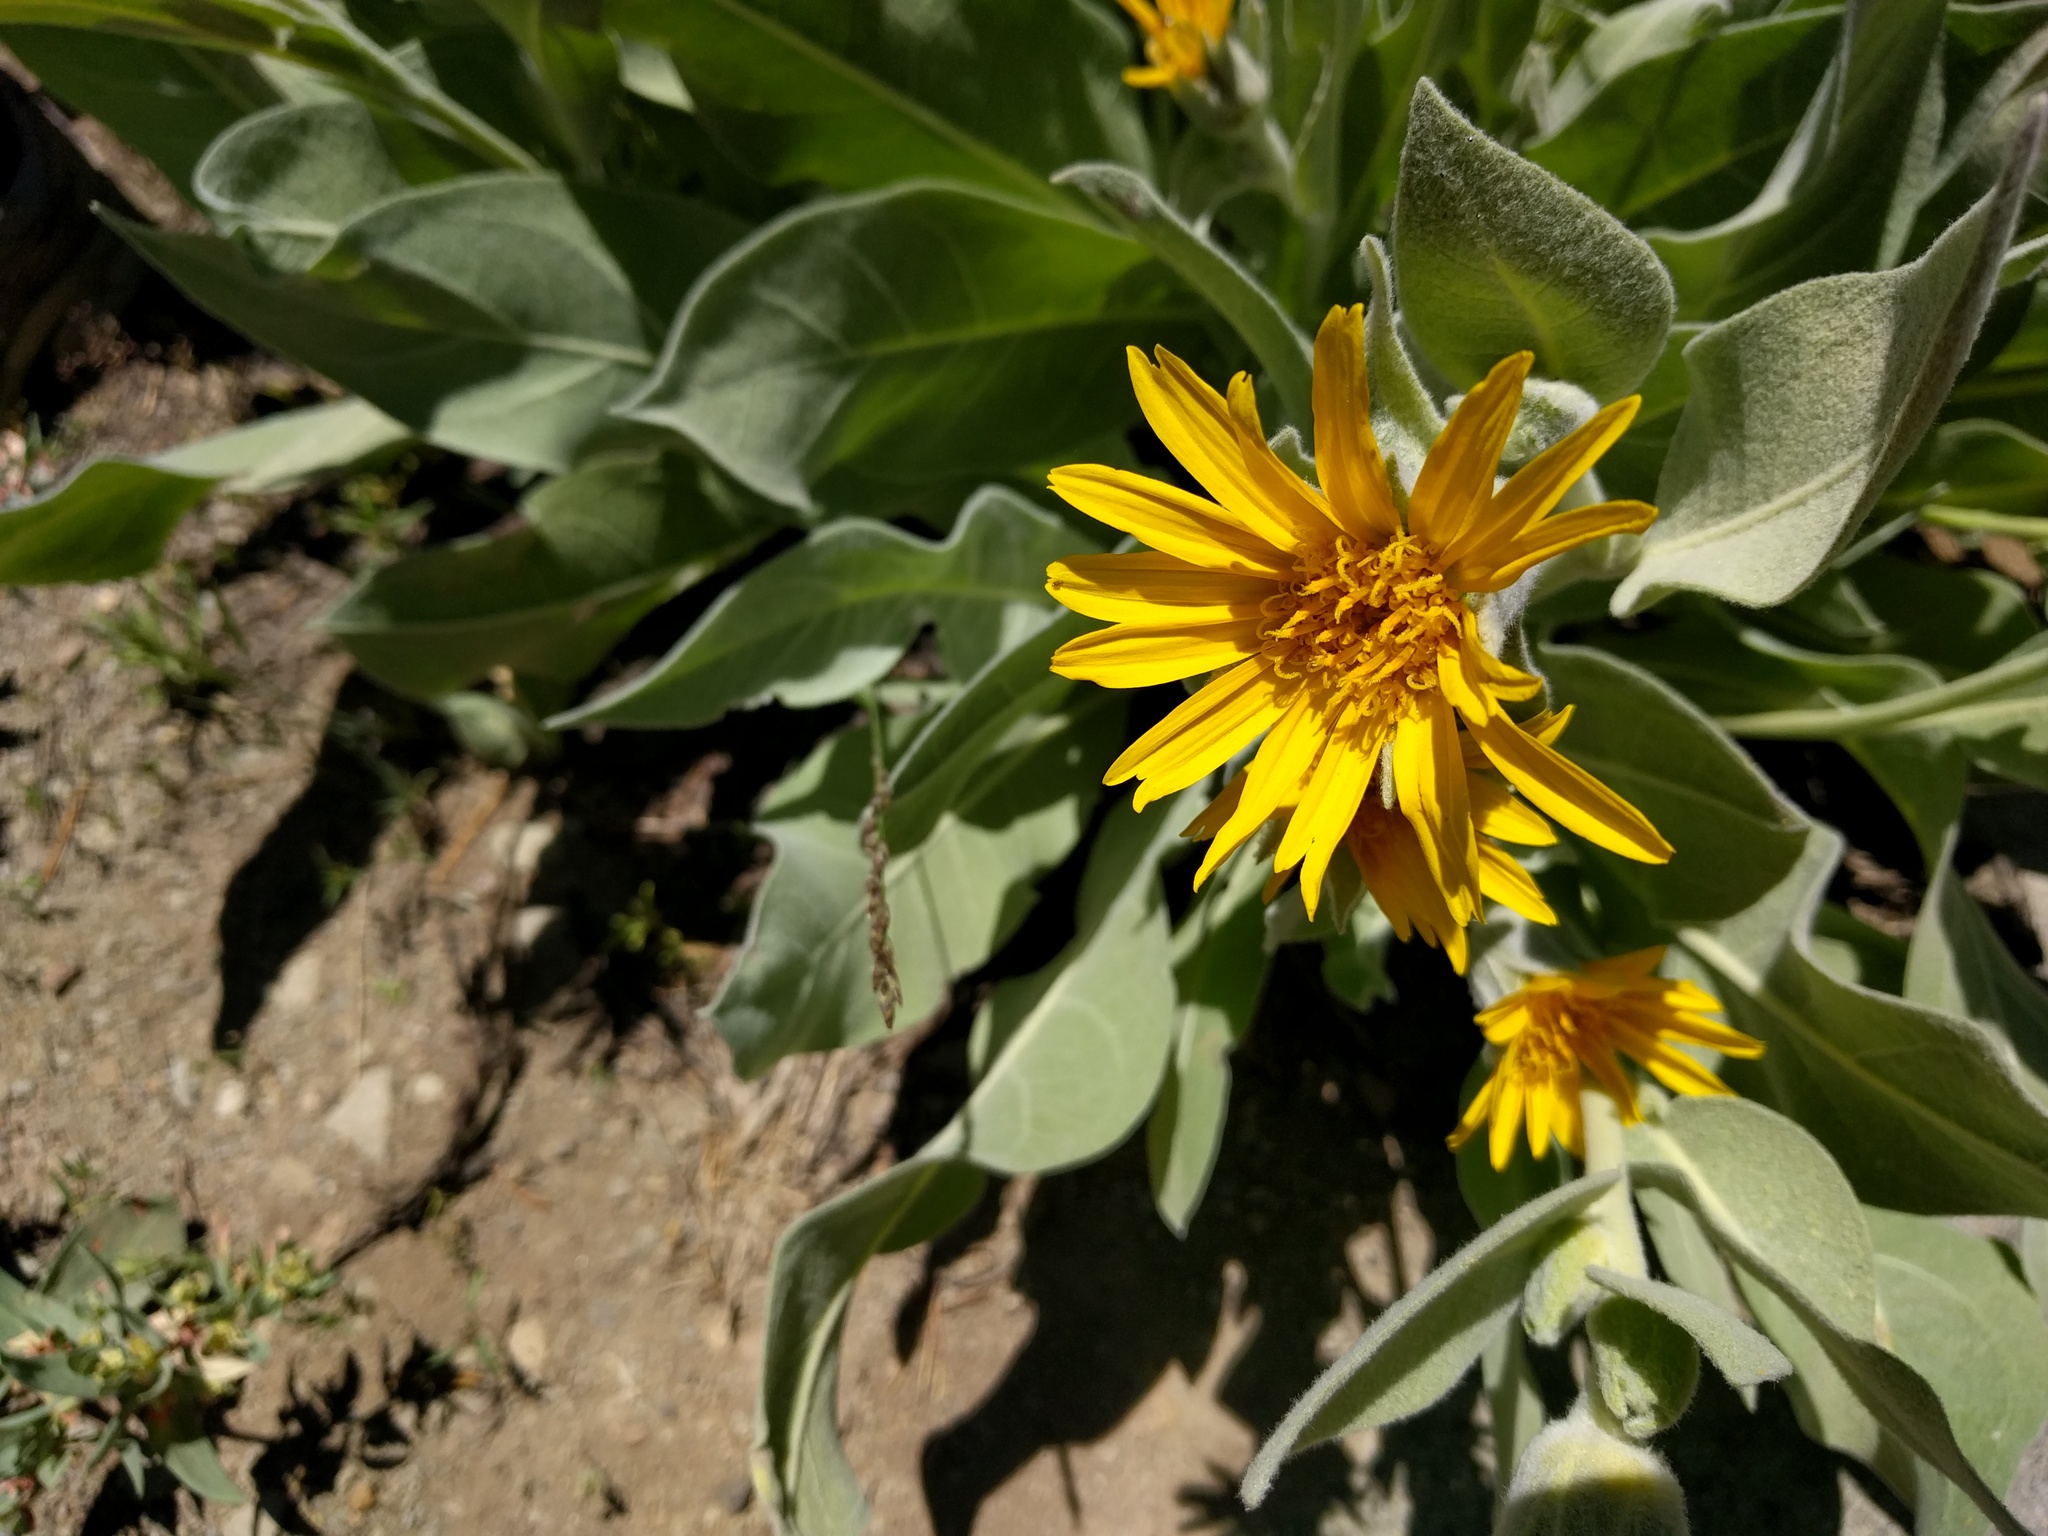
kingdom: Plantae
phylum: Tracheophyta
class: Magnoliopsida
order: Asterales
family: Asteraceae
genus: Wyethia
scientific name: Wyethia mollis
